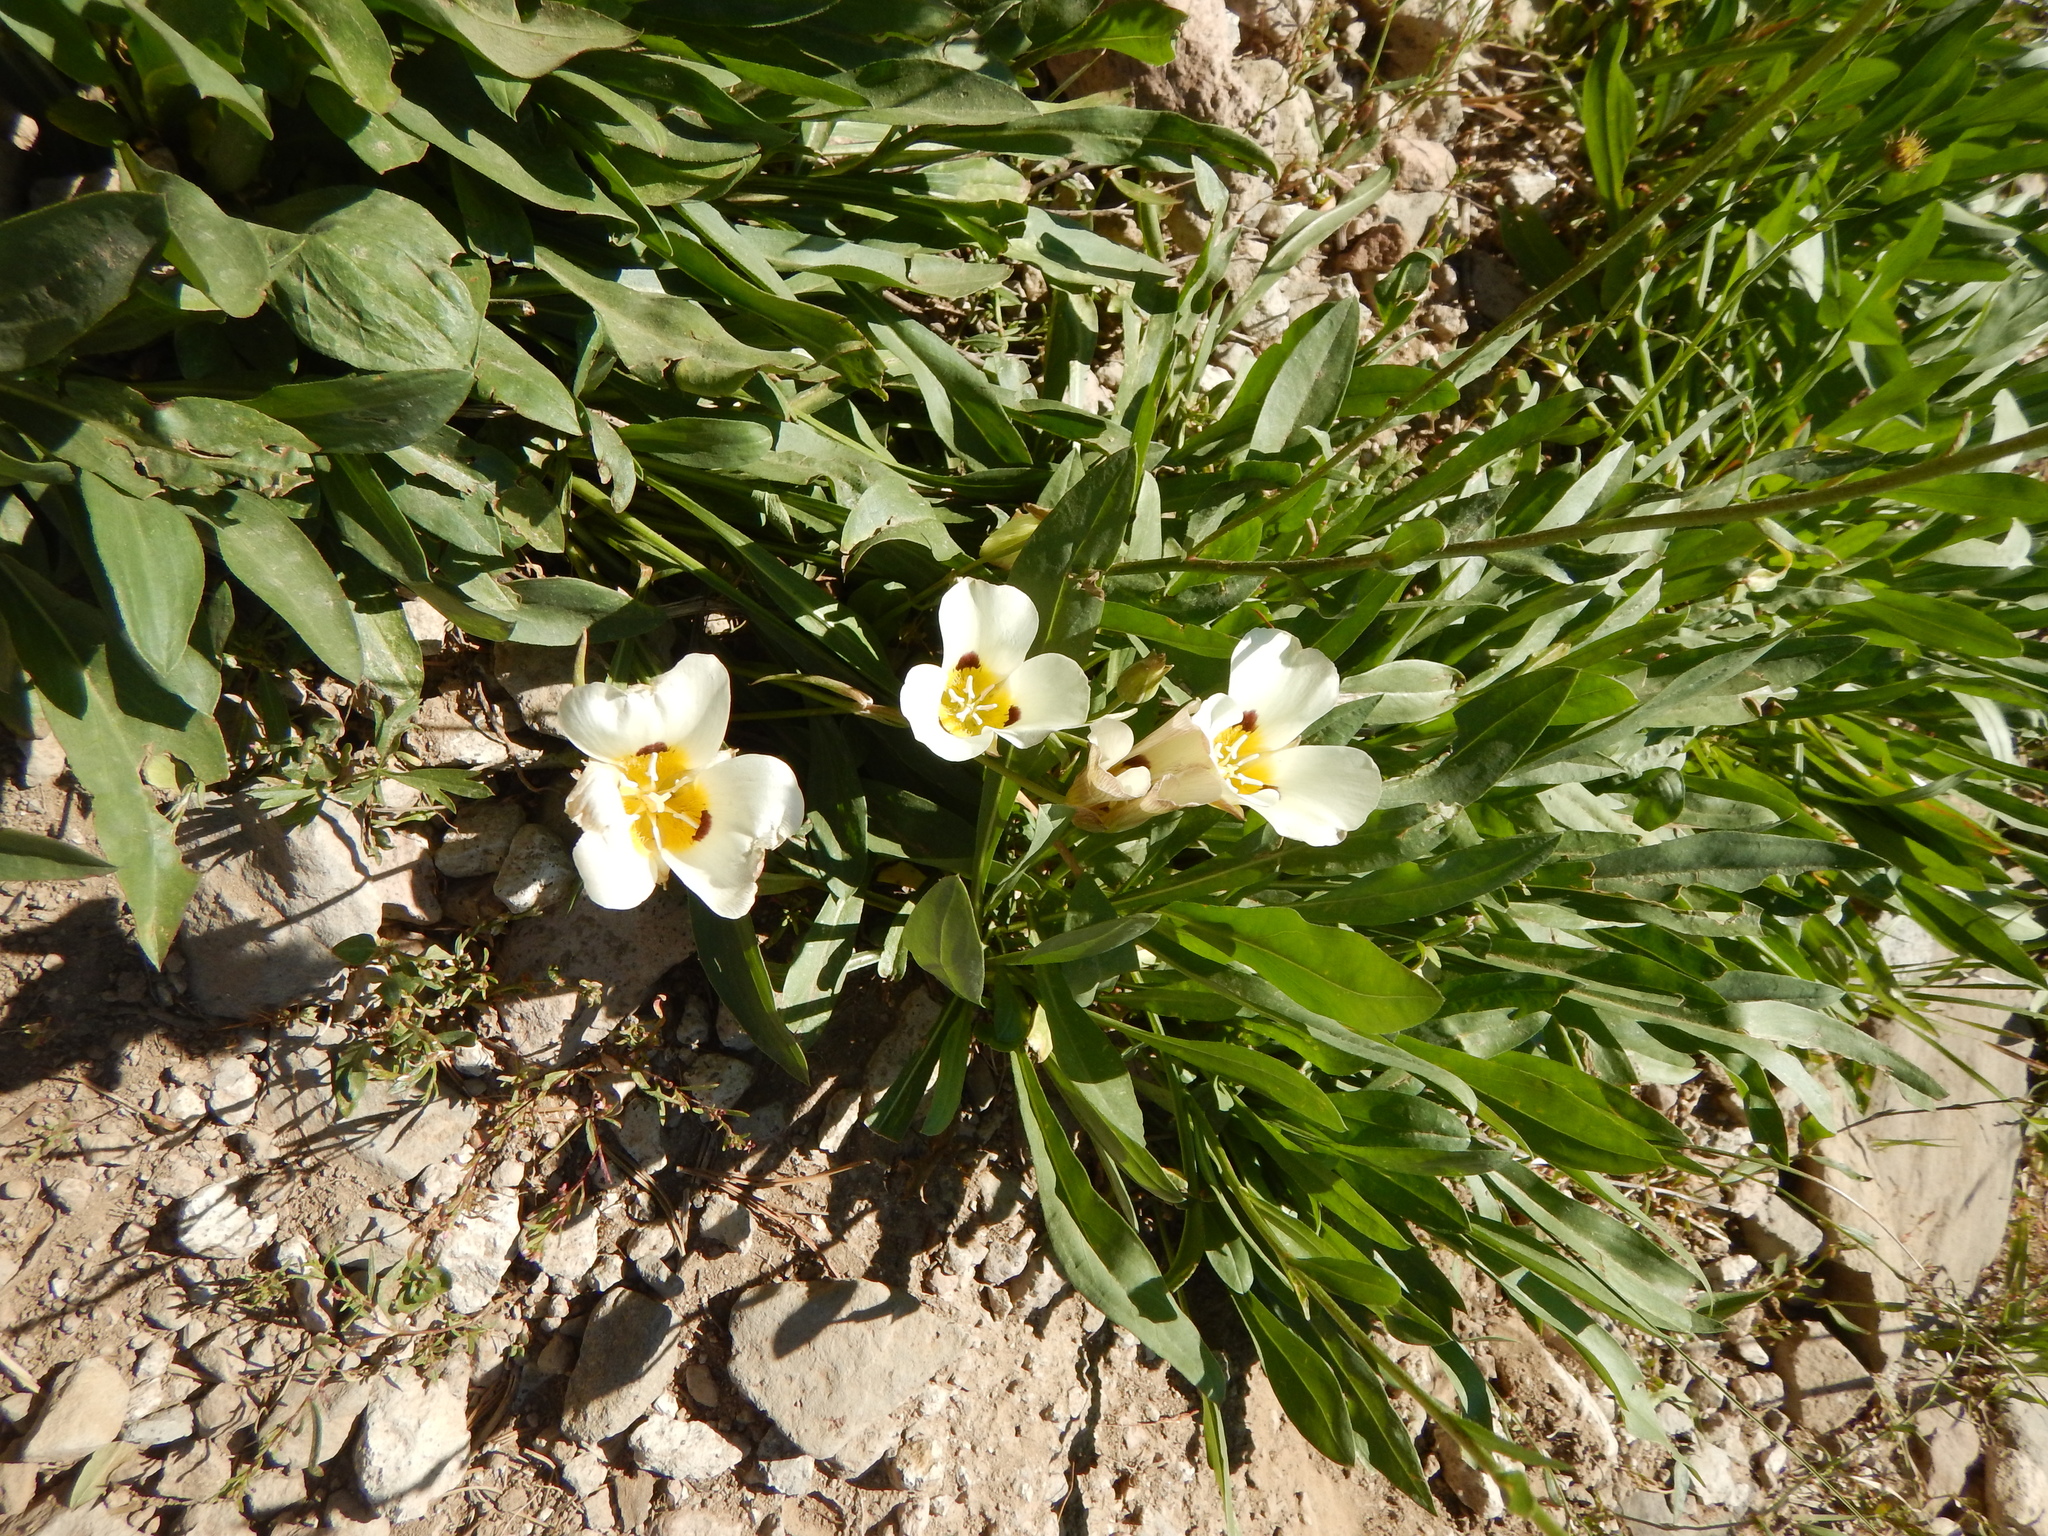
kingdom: Plantae
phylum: Tracheophyta
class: Liliopsida
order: Liliales
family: Liliaceae
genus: Calochortus
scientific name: Calochortus leichtlinii
